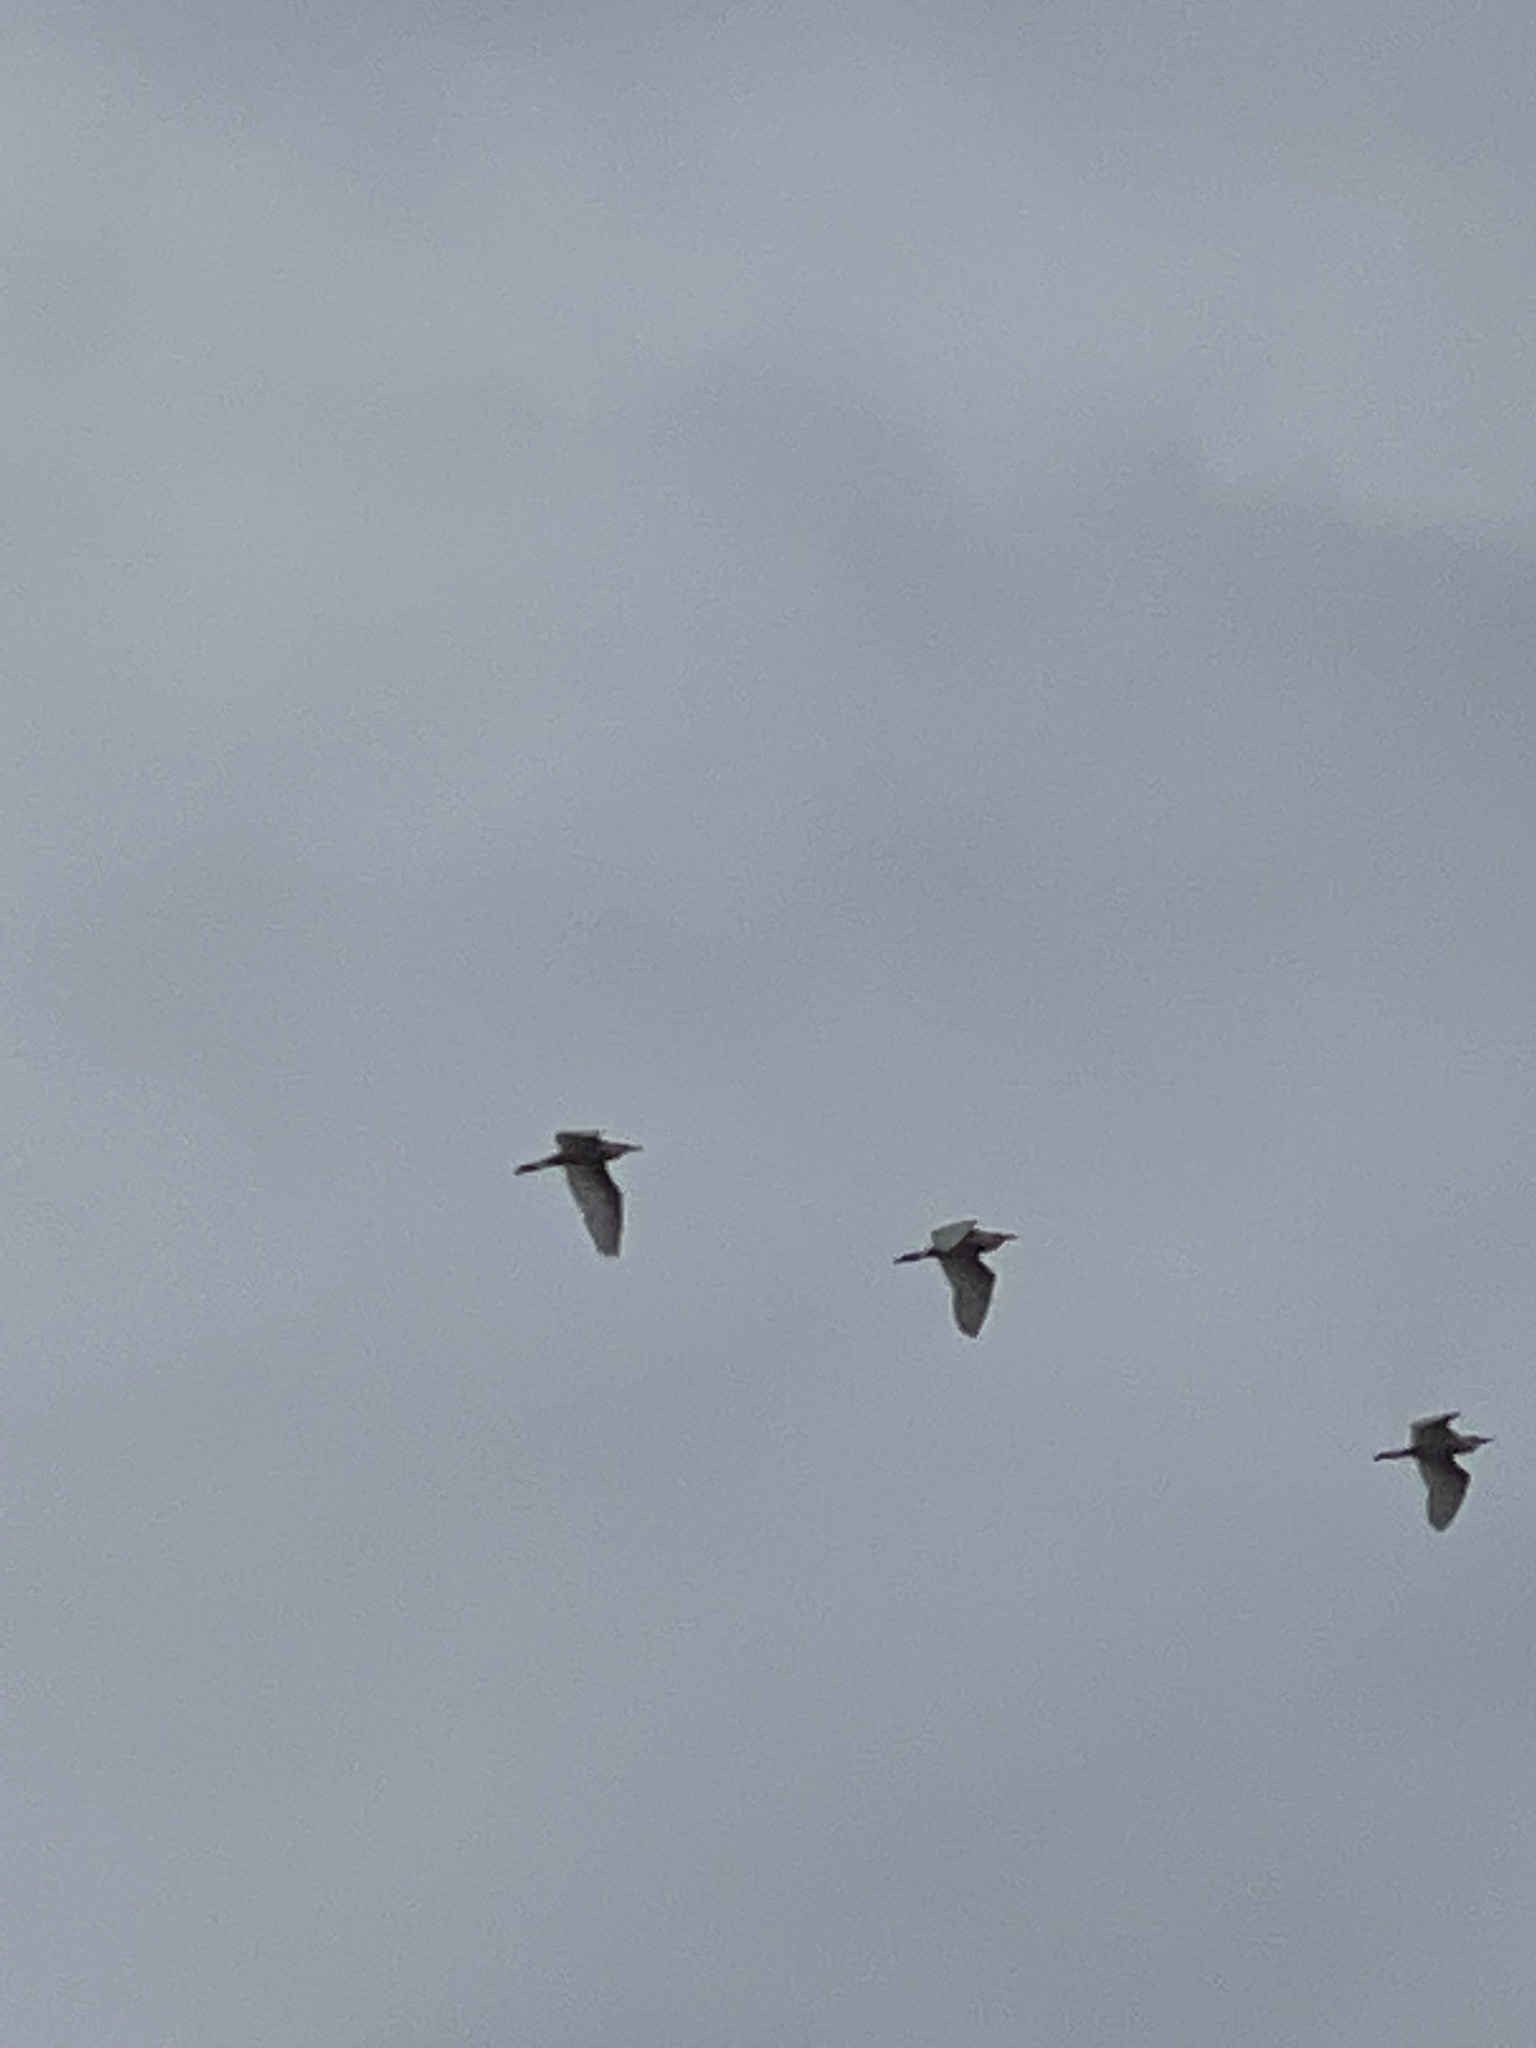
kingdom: Animalia
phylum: Chordata
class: Aves
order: Pelecaniformes
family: Ardeidae
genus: Bubulcus
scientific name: Bubulcus ibis
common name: Cattle egret
